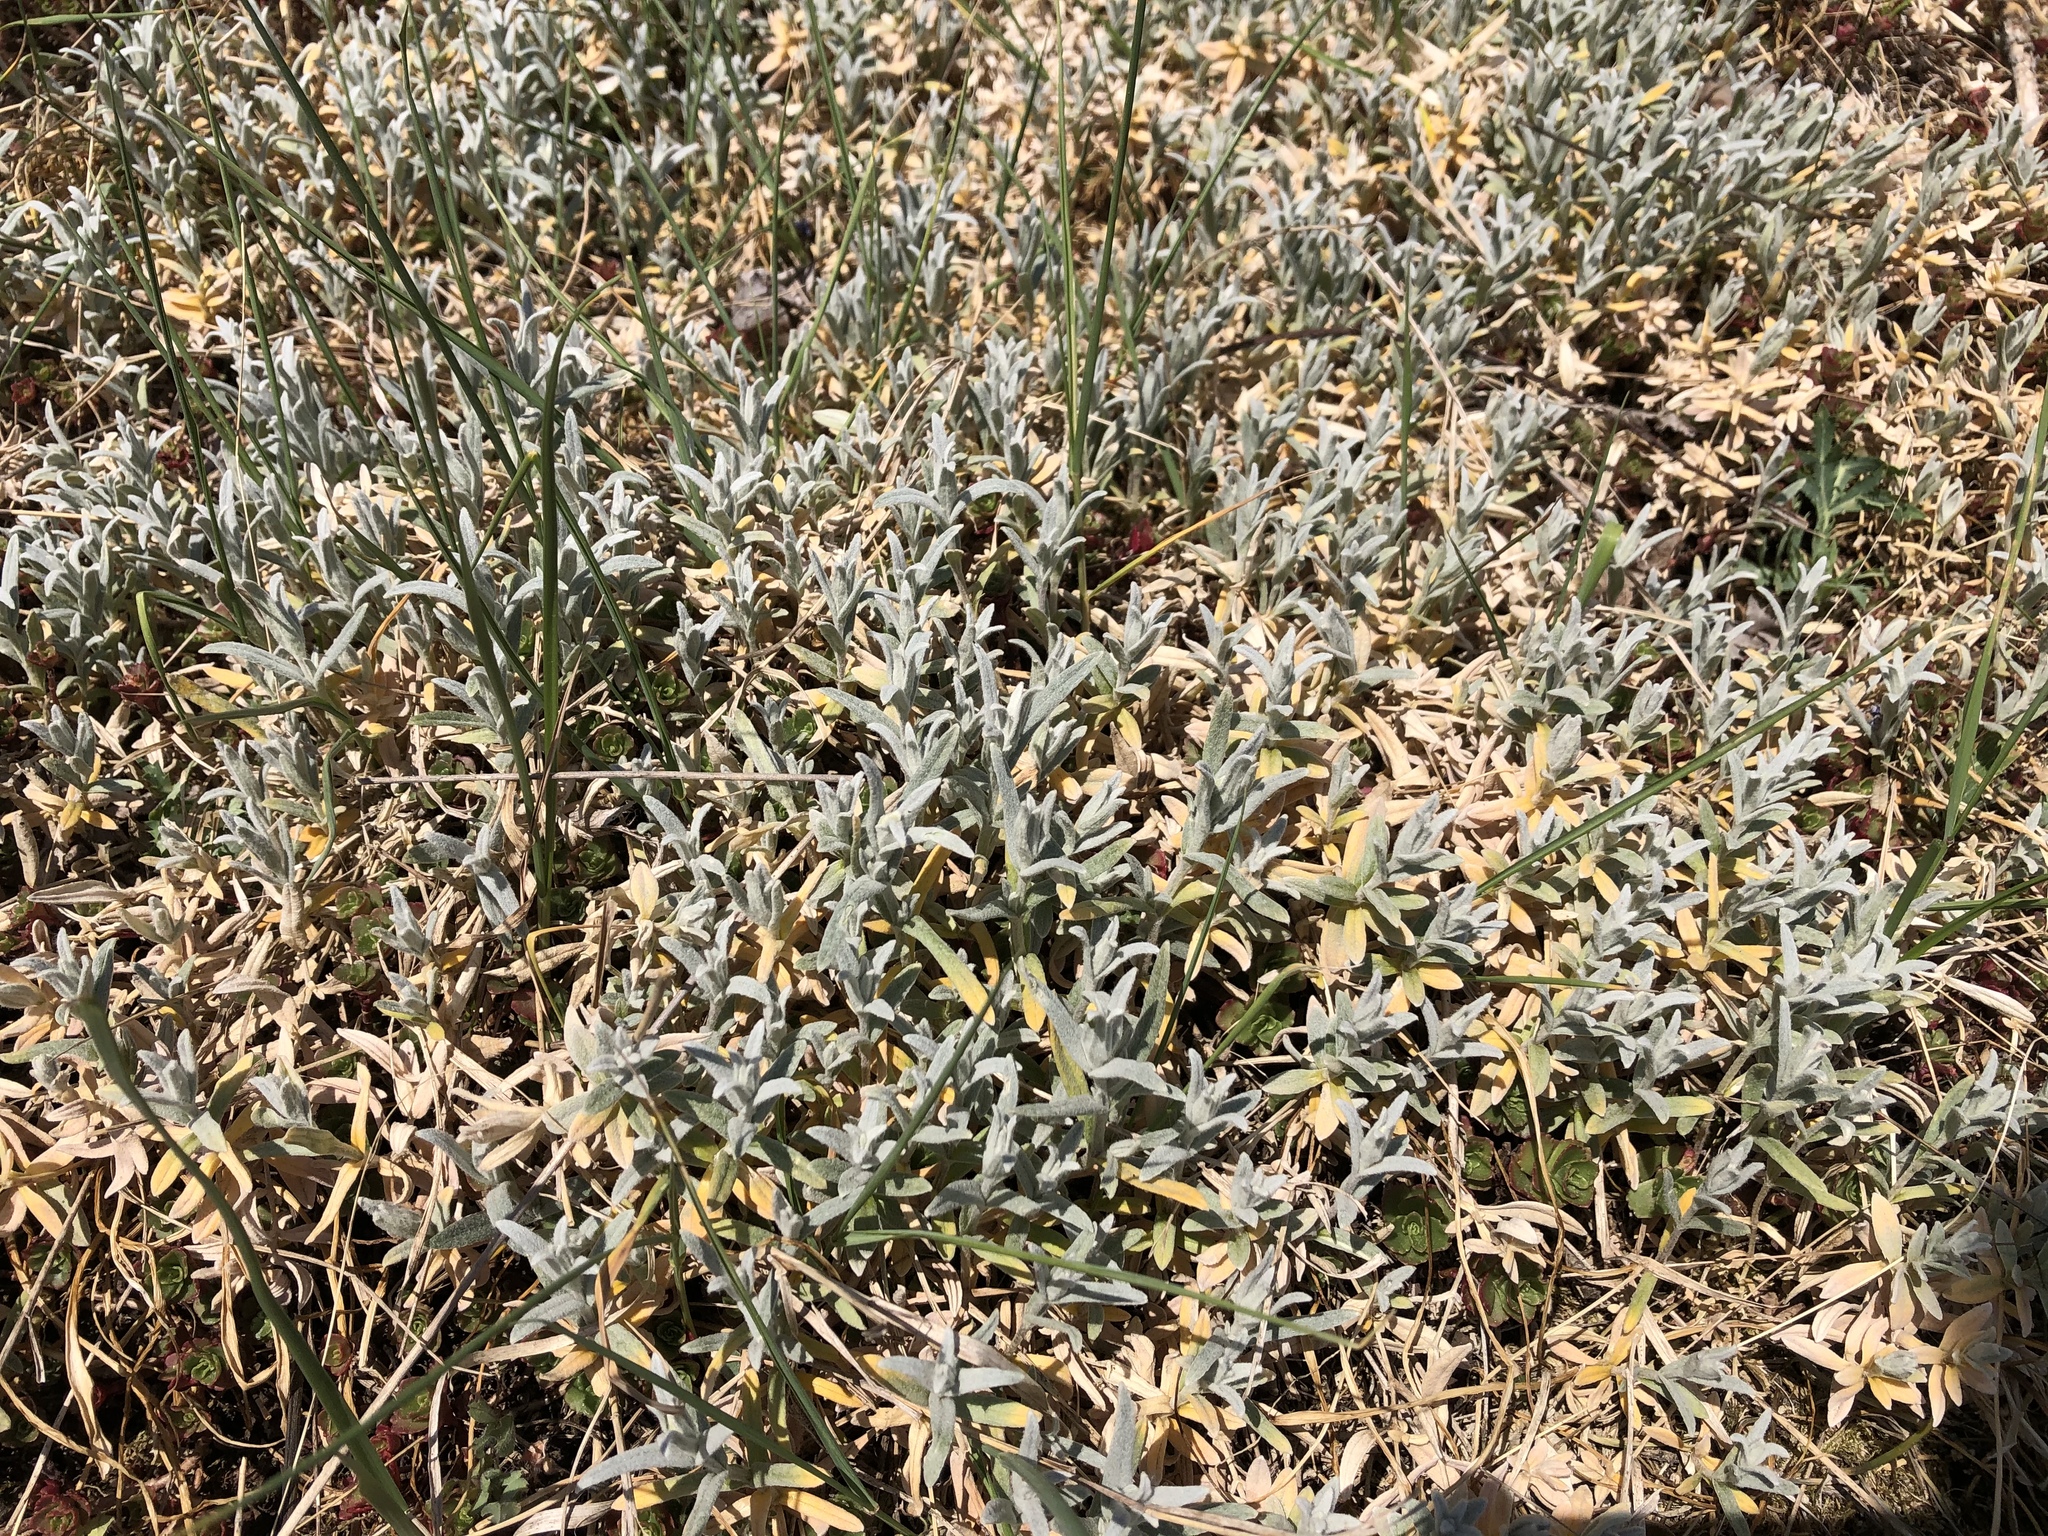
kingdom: Plantae
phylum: Tracheophyta
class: Magnoliopsida
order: Caryophyllales
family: Caryophyllaceae
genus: Cerastium
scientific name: Cerastium tomentosum
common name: Snow-in-summer
